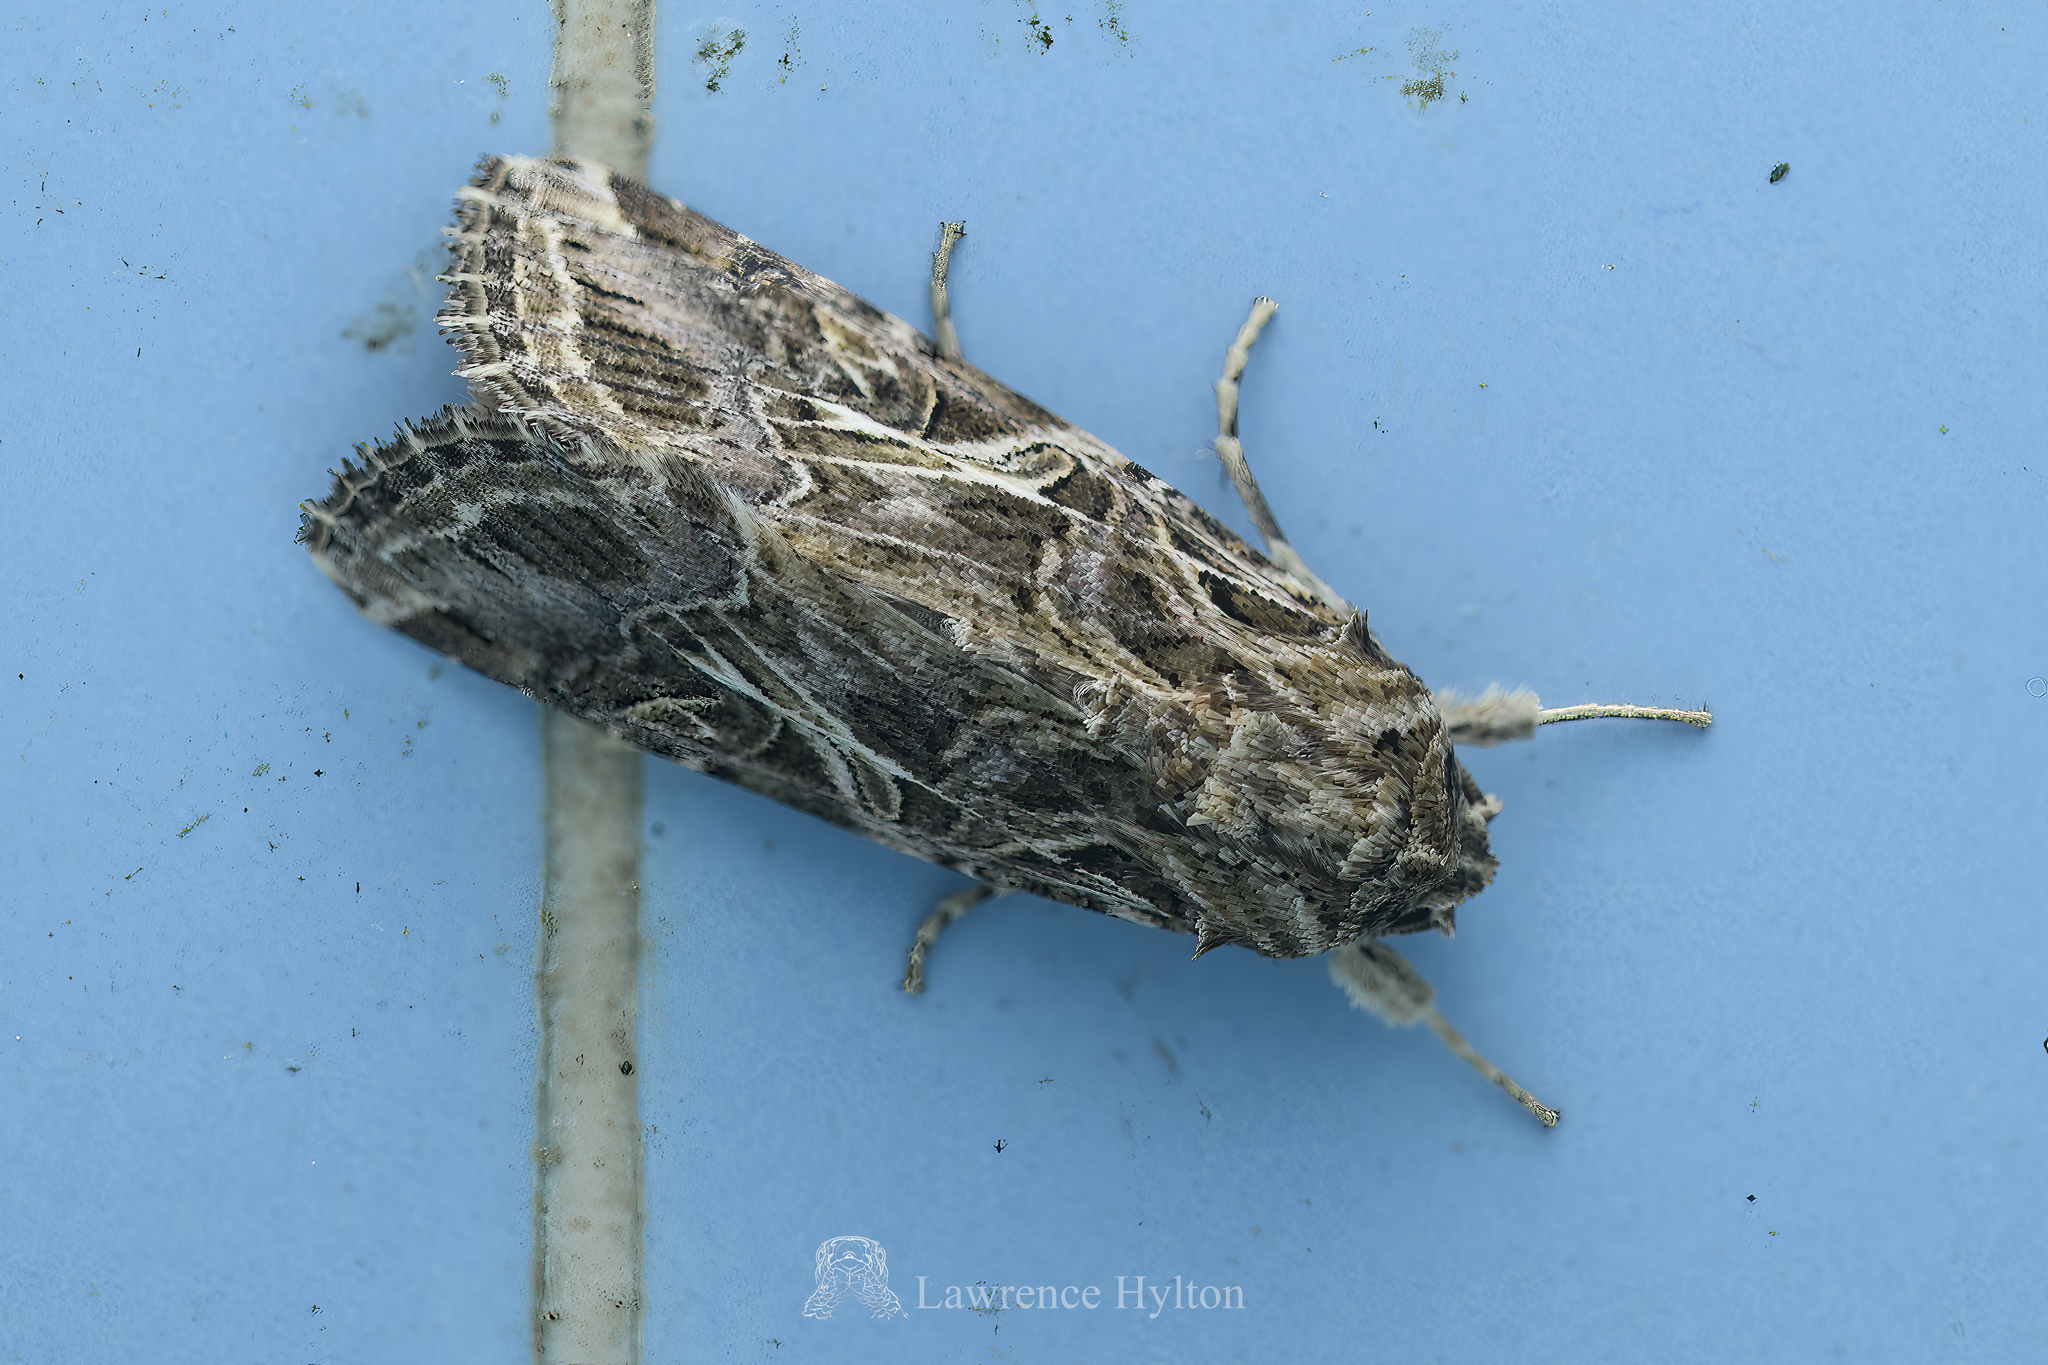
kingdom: Animalia
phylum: Arthropoda
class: Insecta
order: Lepidoptera
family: Noctuidae
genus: Spodoptera
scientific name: Spodoptera litura
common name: Asian cotton leafworm
